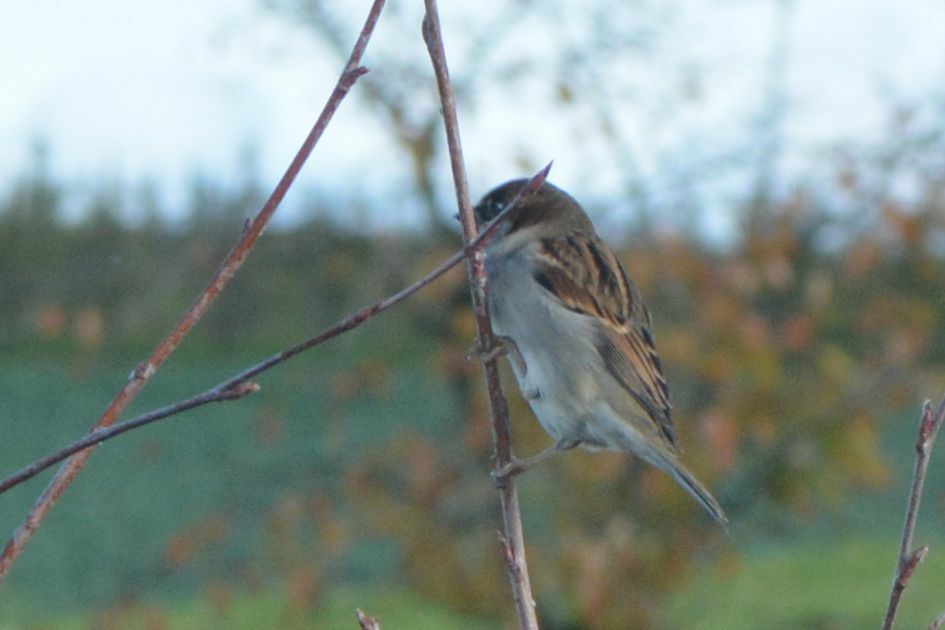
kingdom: Animalia
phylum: Chordata
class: Aves
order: Passeriformes
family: Passeridae
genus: Passer
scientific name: Passer domesticus
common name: House sparrow
